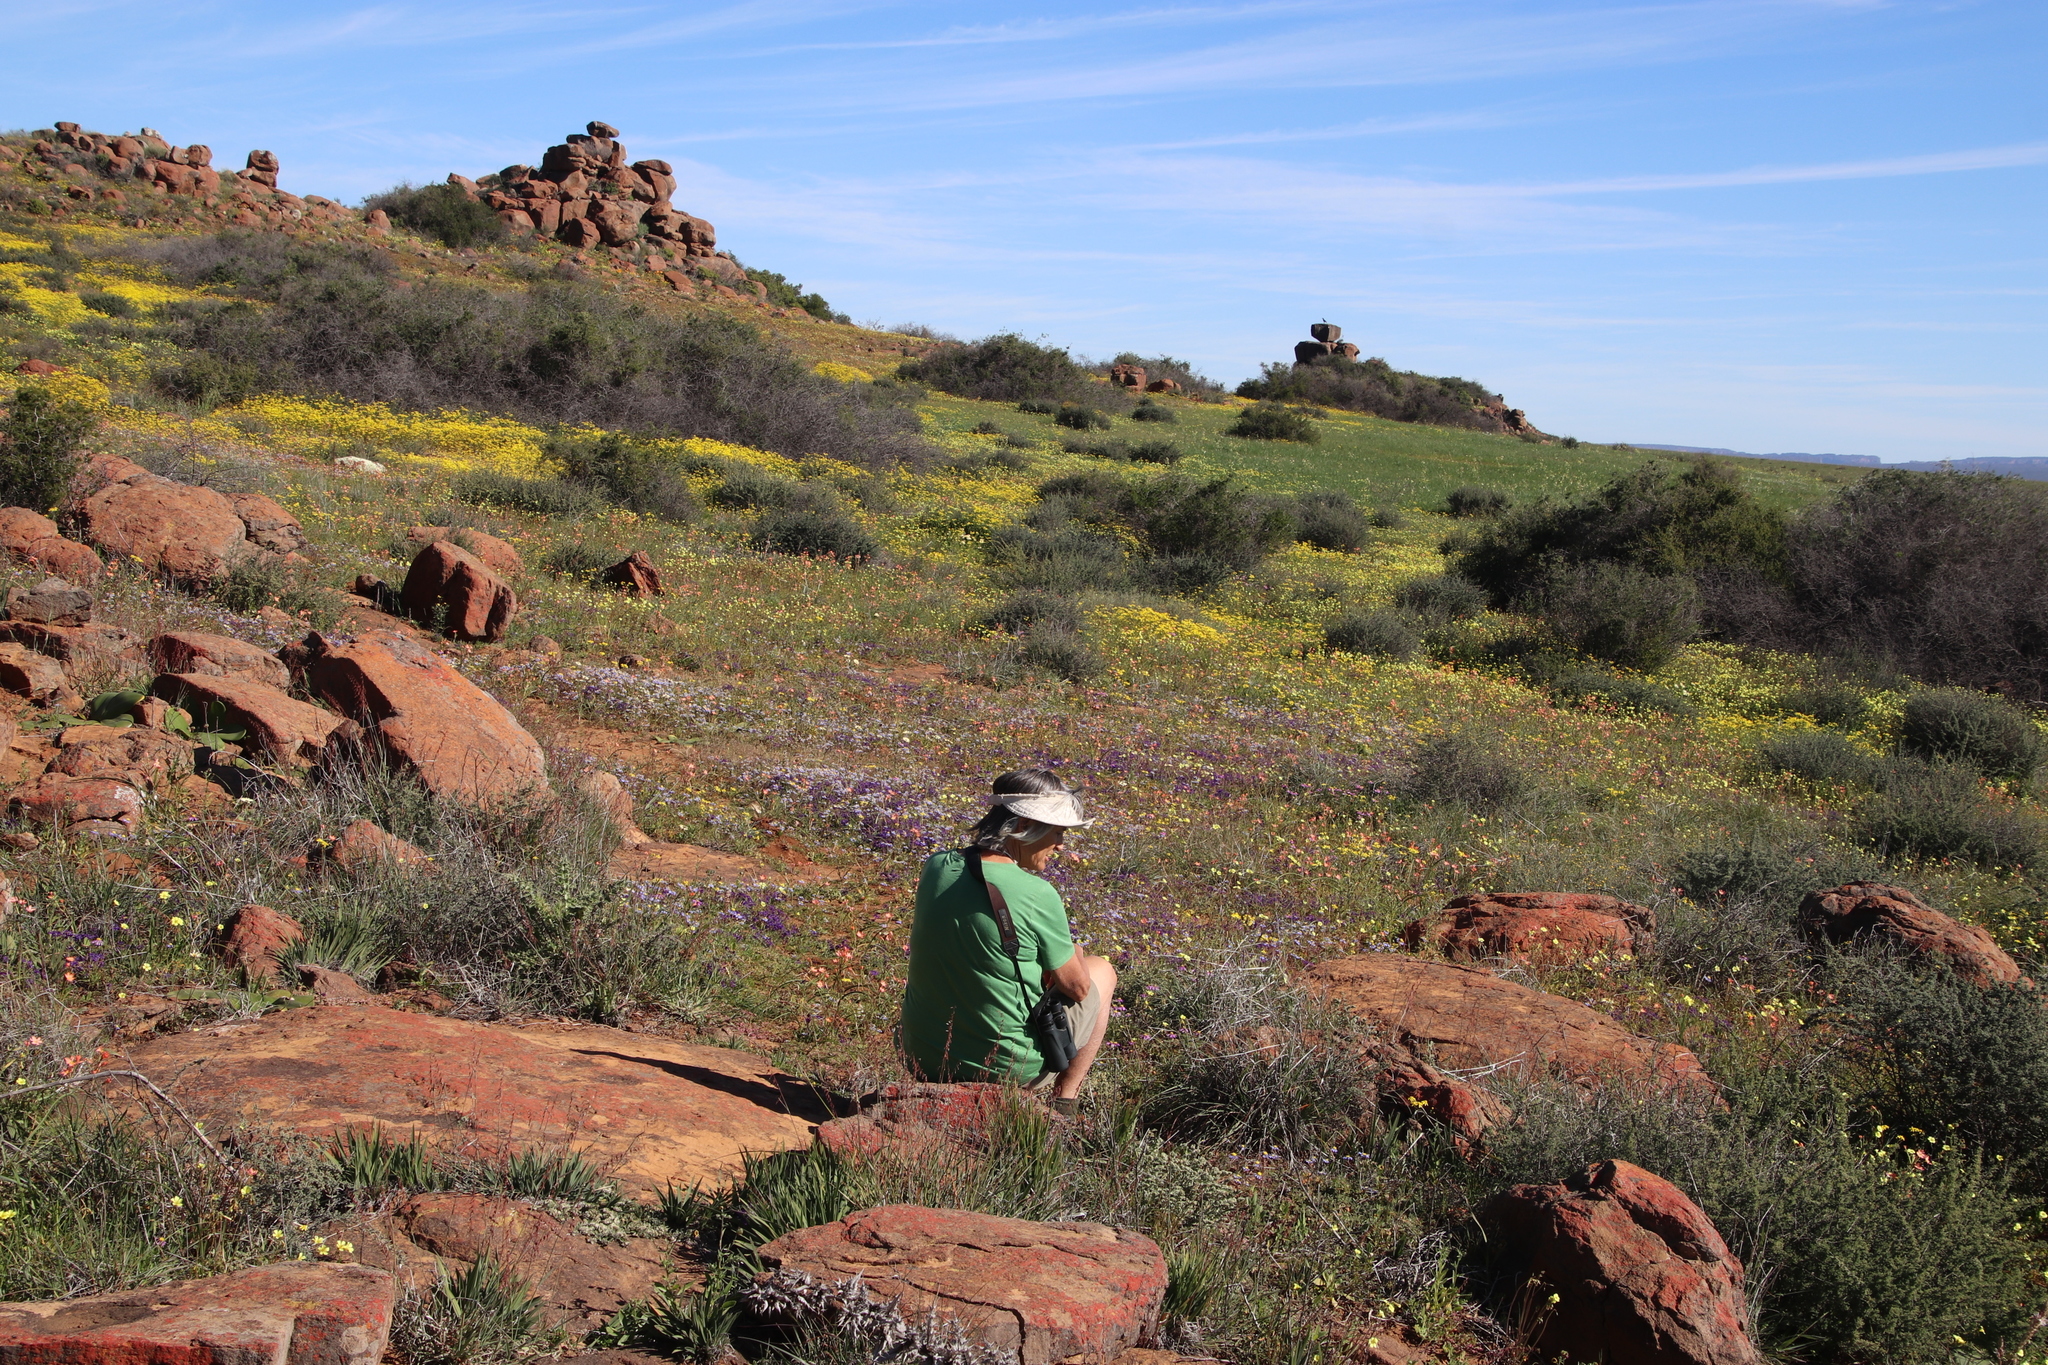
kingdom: Plantae
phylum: Tracheophyta
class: Magnoliopsida
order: Asterales
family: Asteraceae
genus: Senecio
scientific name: Senecio abruptus
